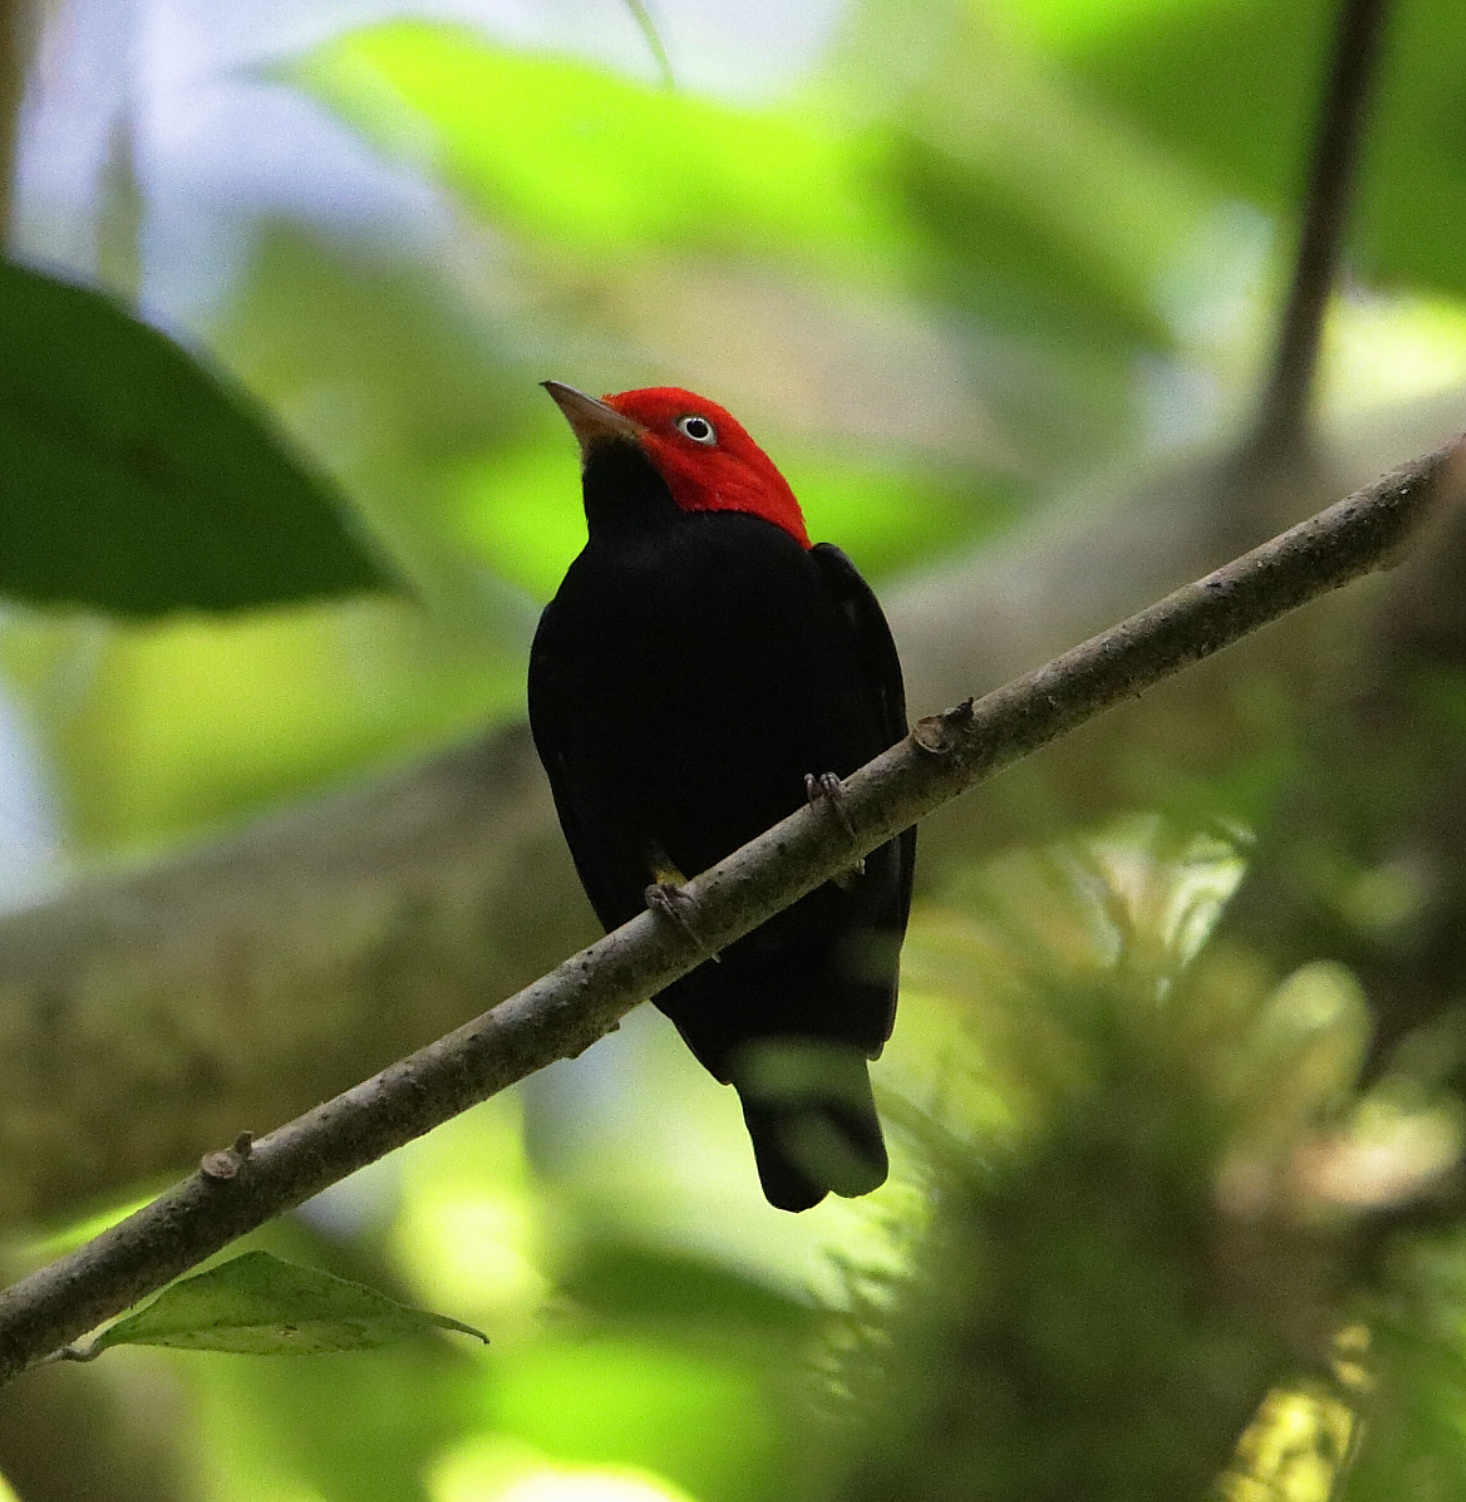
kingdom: Animalia
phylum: Chordata
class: Aves
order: Passeriformes
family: Pipridae
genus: Pipra
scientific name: Pipra mentalis
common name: Red-capped manakin
